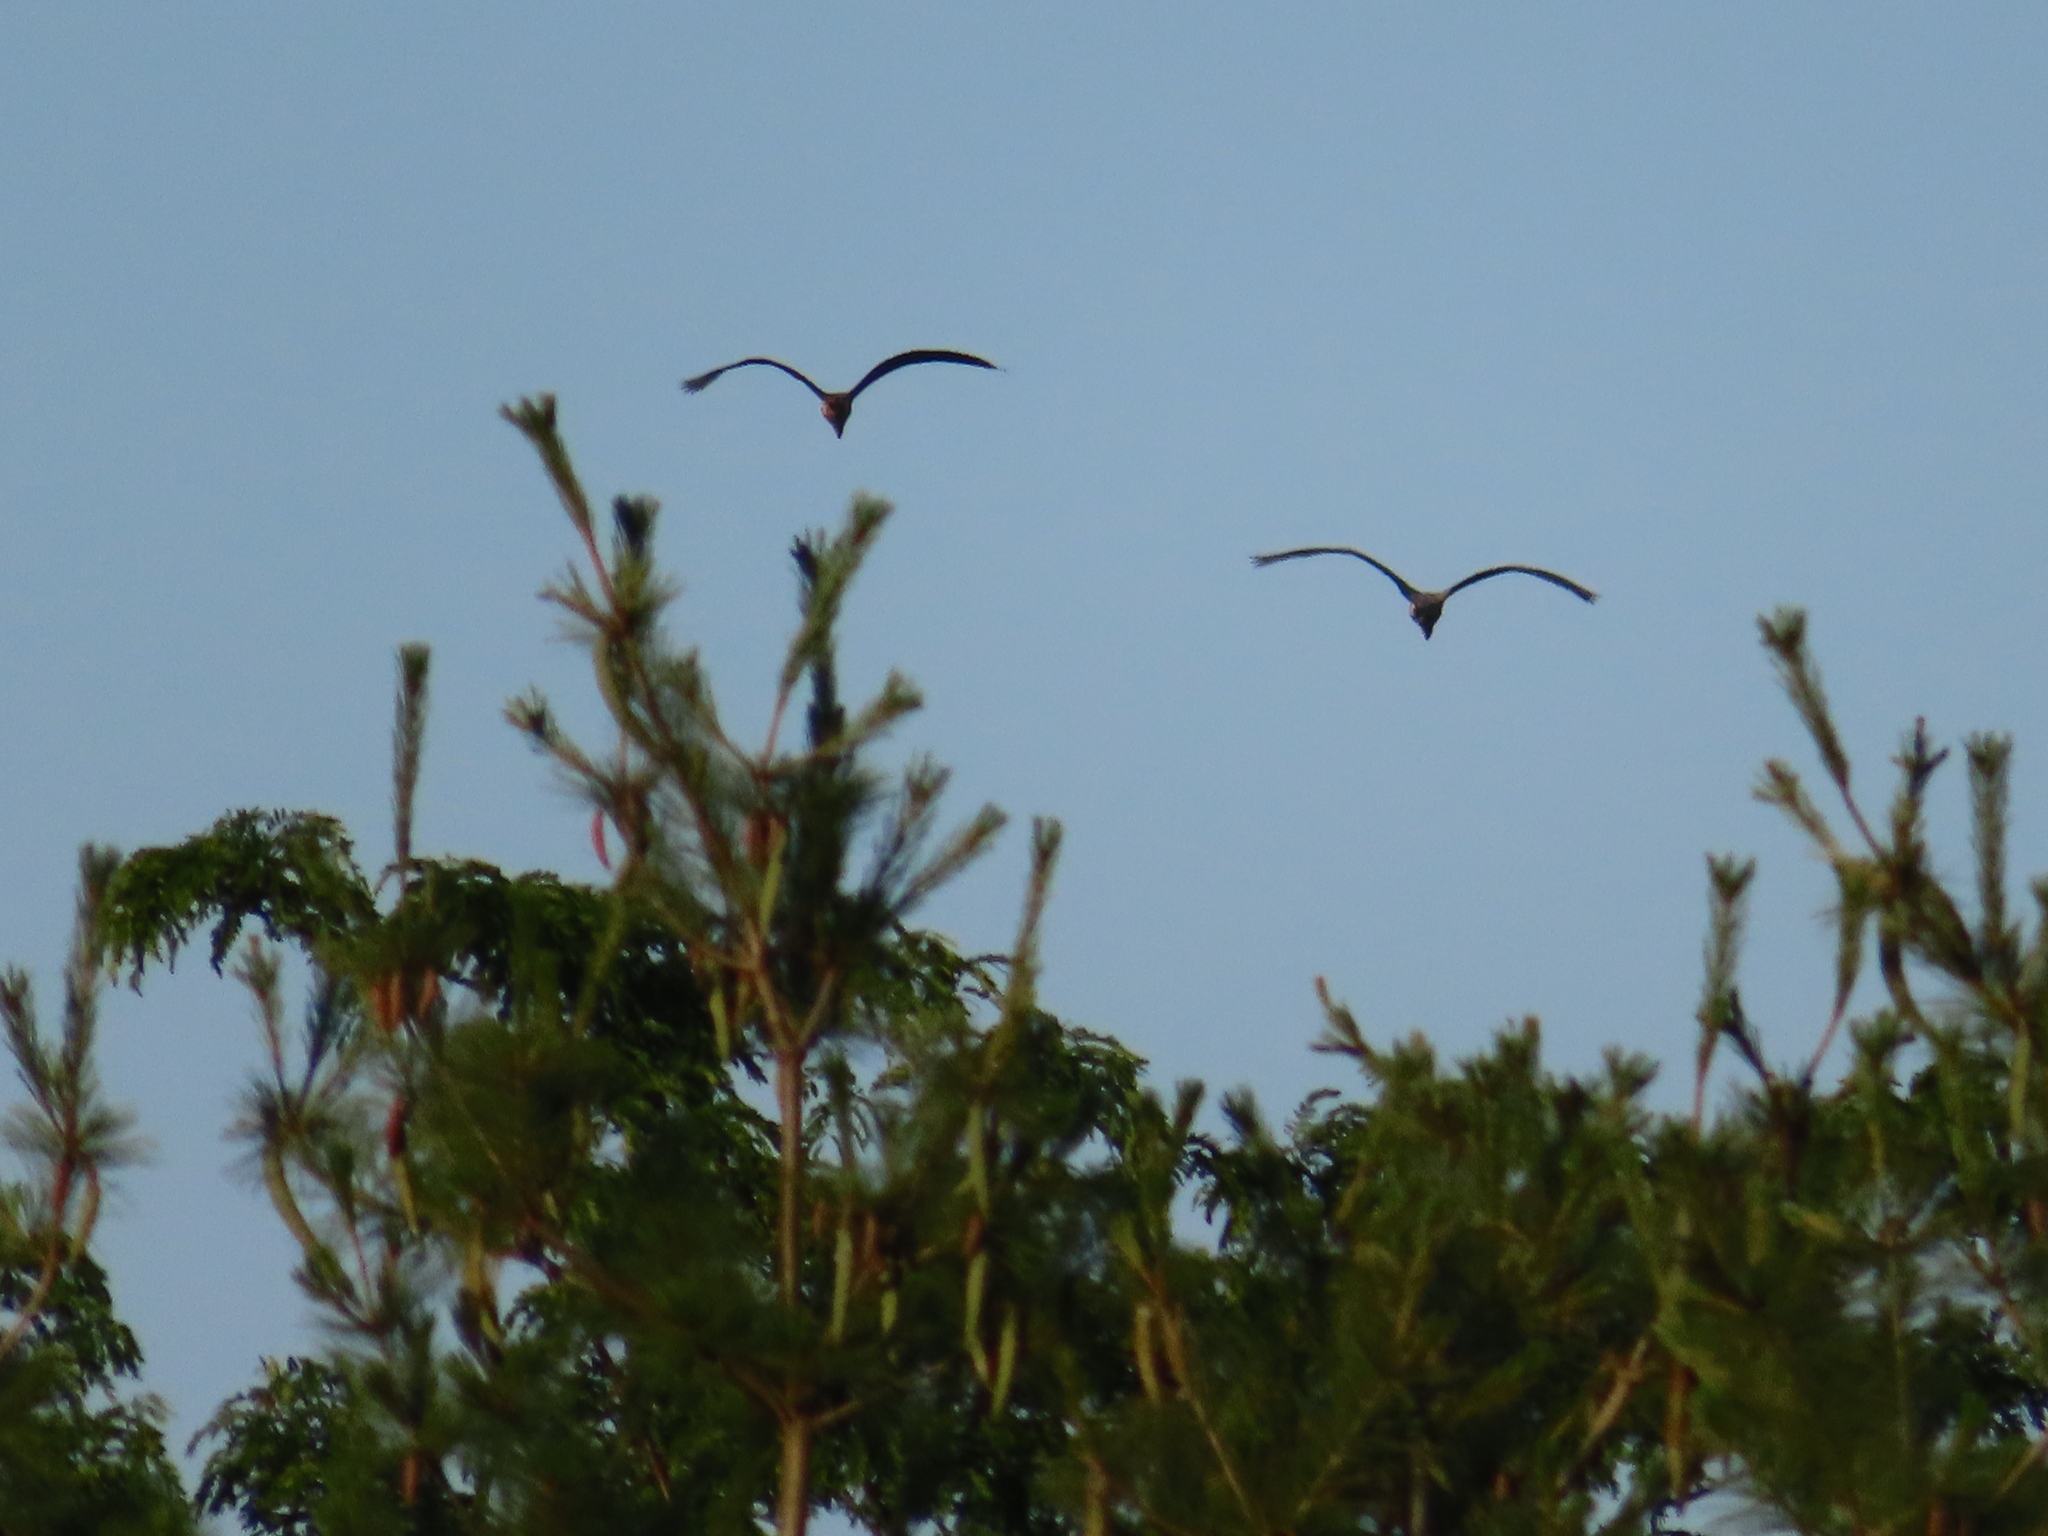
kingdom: Animalia
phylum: Chordata
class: Aves
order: Pelecaniformes
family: Ardeidae
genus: Ardea
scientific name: Ardea herodias
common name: Great blue heron
